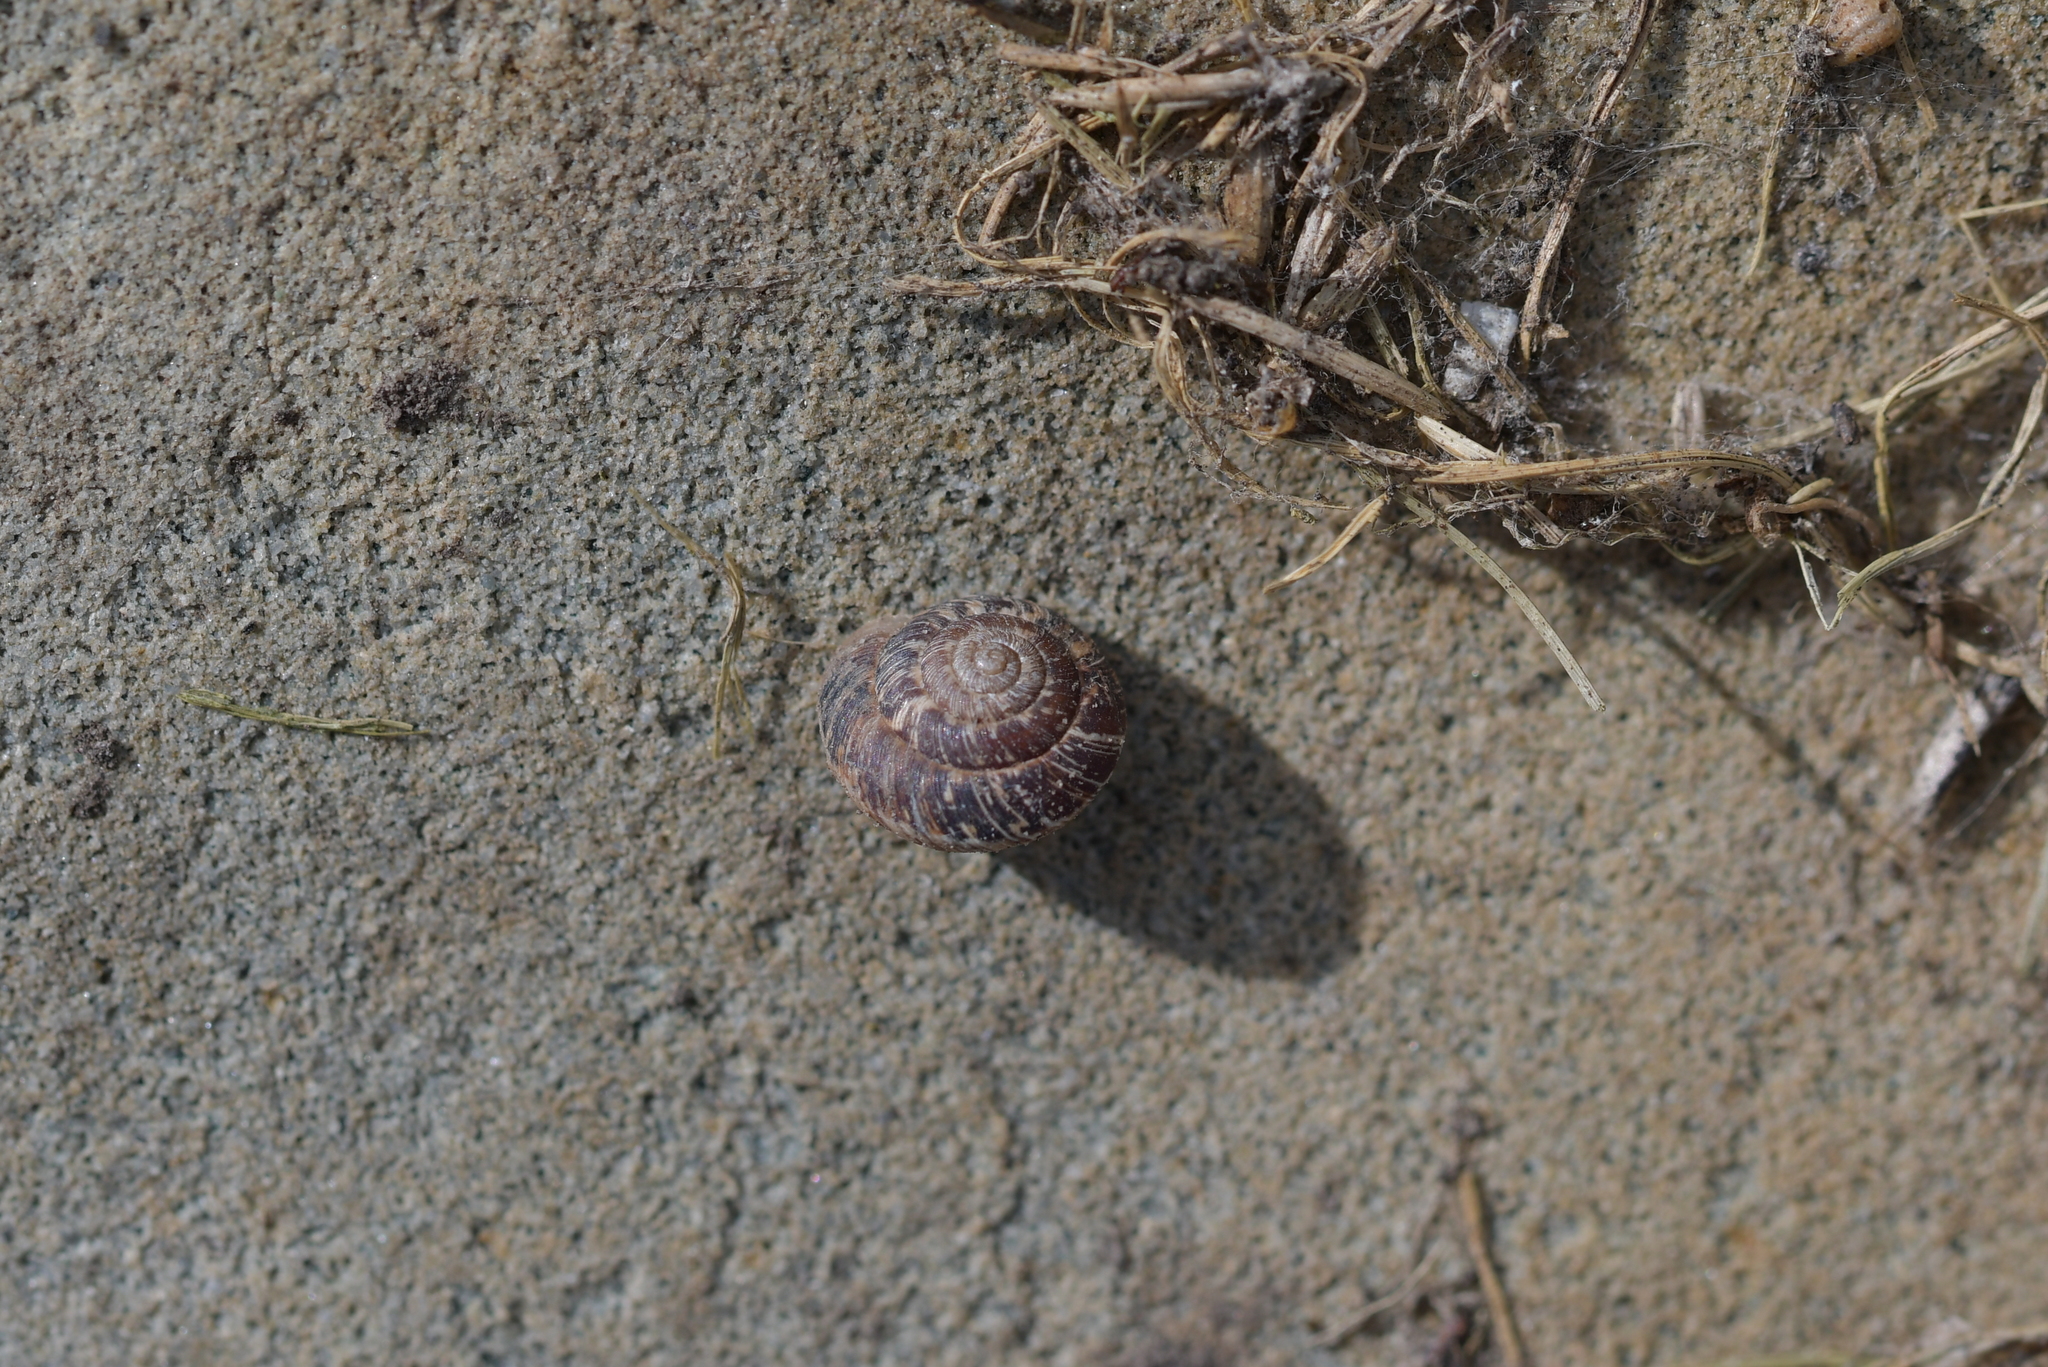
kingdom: Animalia
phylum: Mollusca
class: Gastropoda
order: Stylommatophora
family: Geomitridae
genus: Xeroplexa
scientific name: Xeroplexa intersecta
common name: Wrinkled snail
